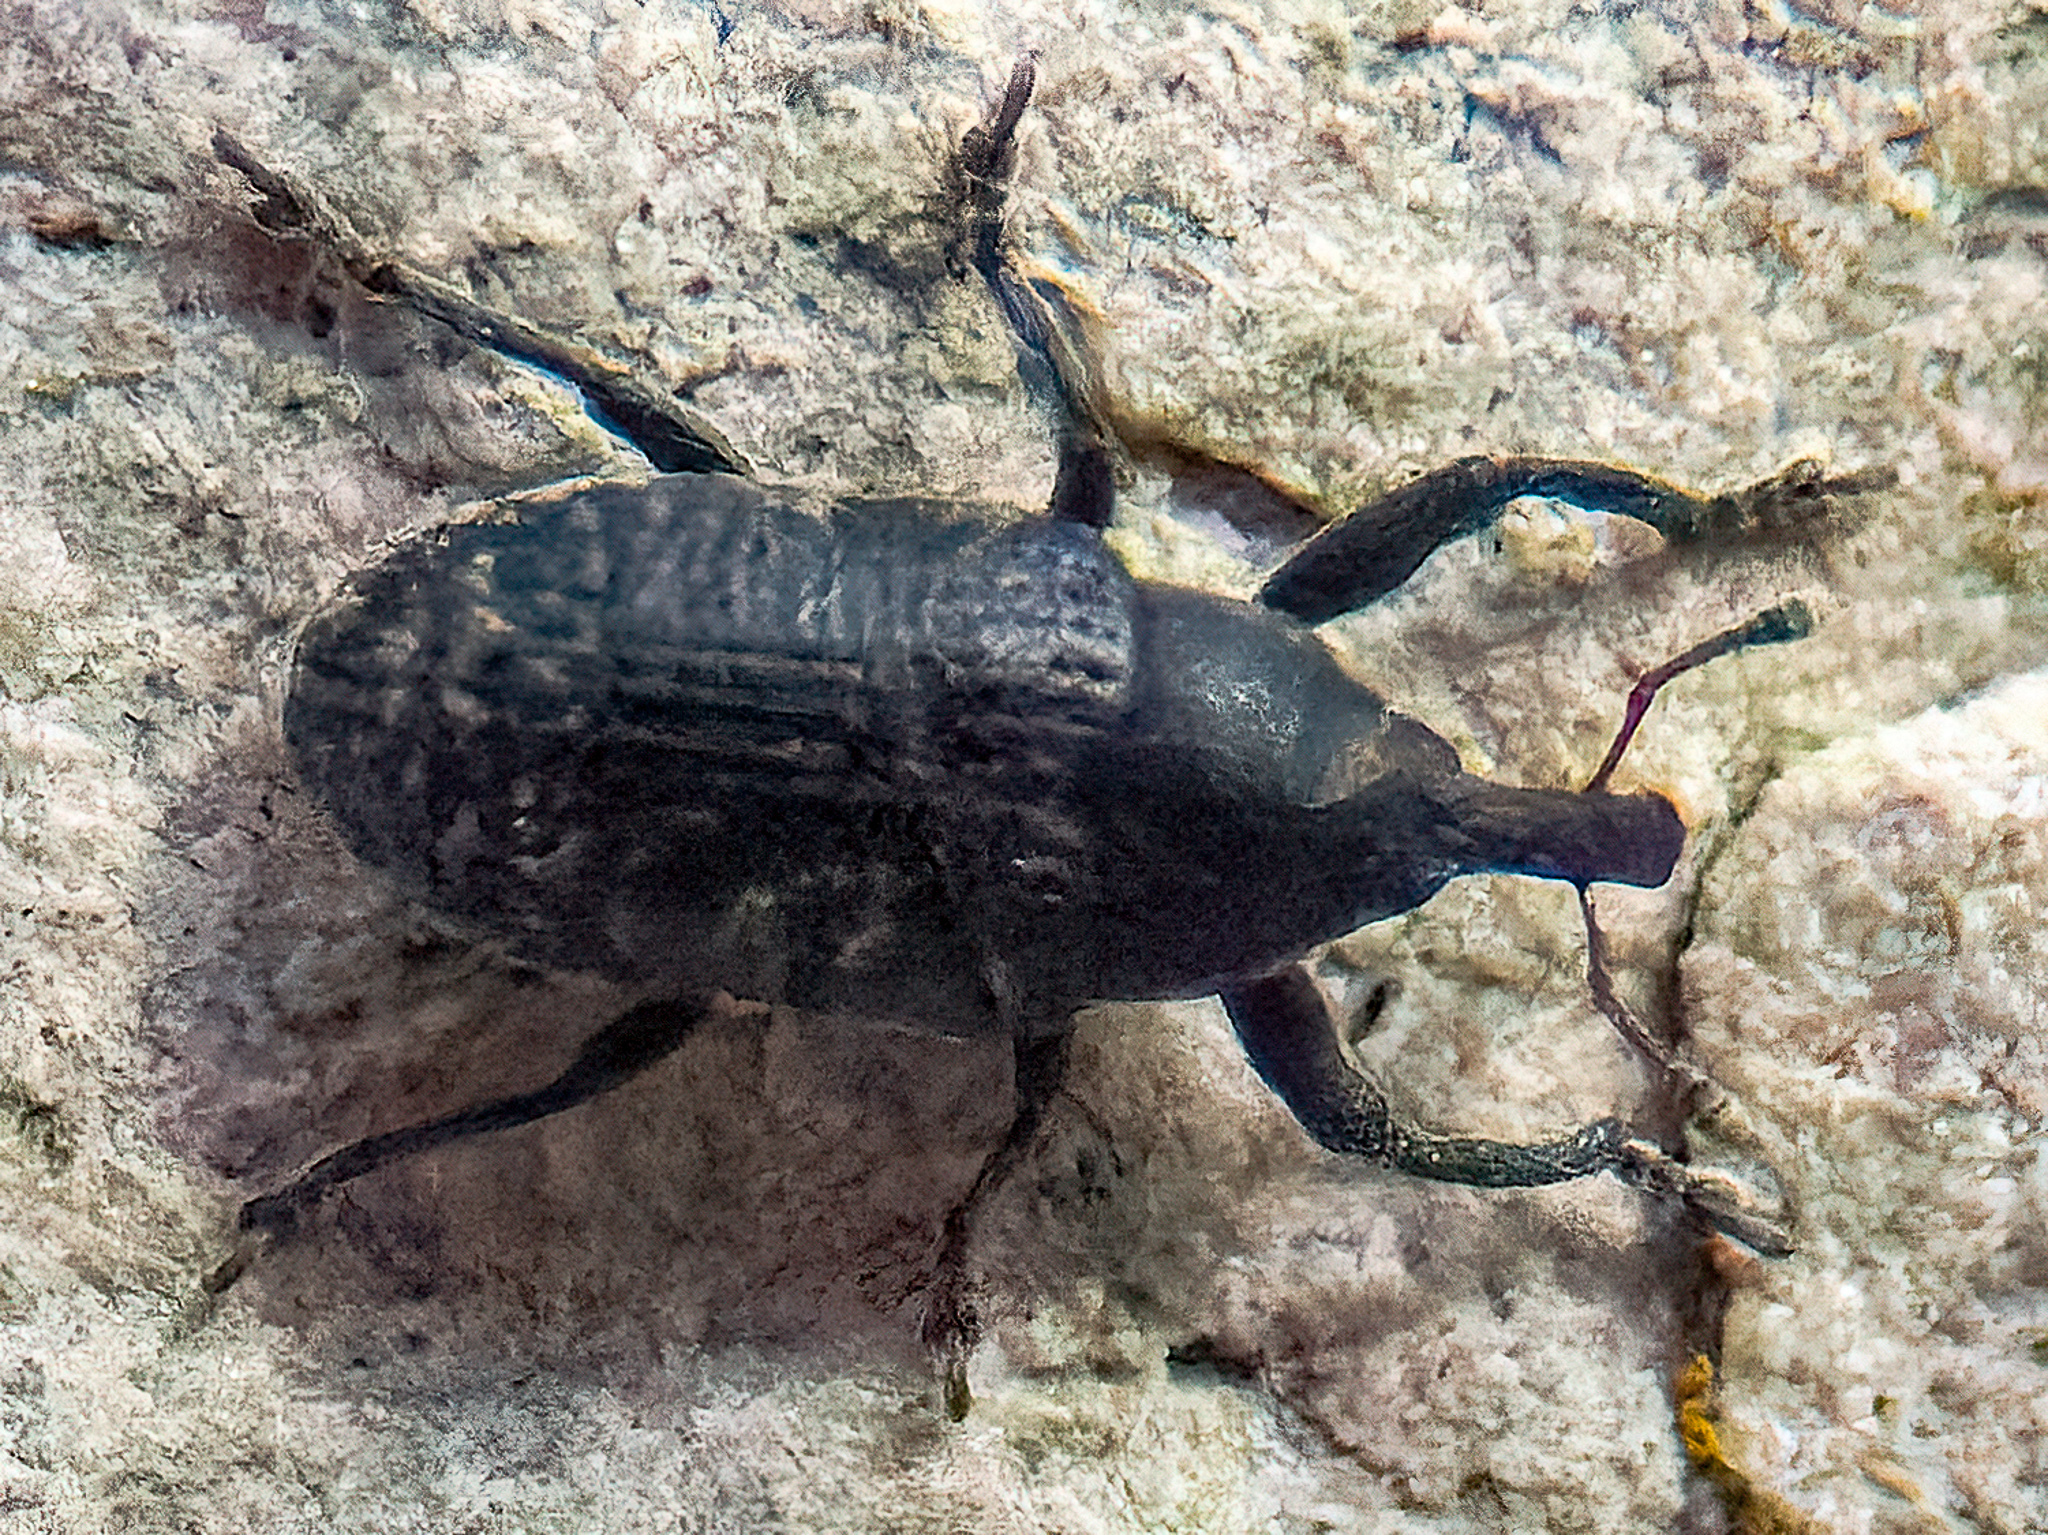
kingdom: Animalia
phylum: Arthropoda
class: Insecta
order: Coleoptera
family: Curculionidae
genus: Larinus
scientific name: Larinus carlinae
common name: Weevil
